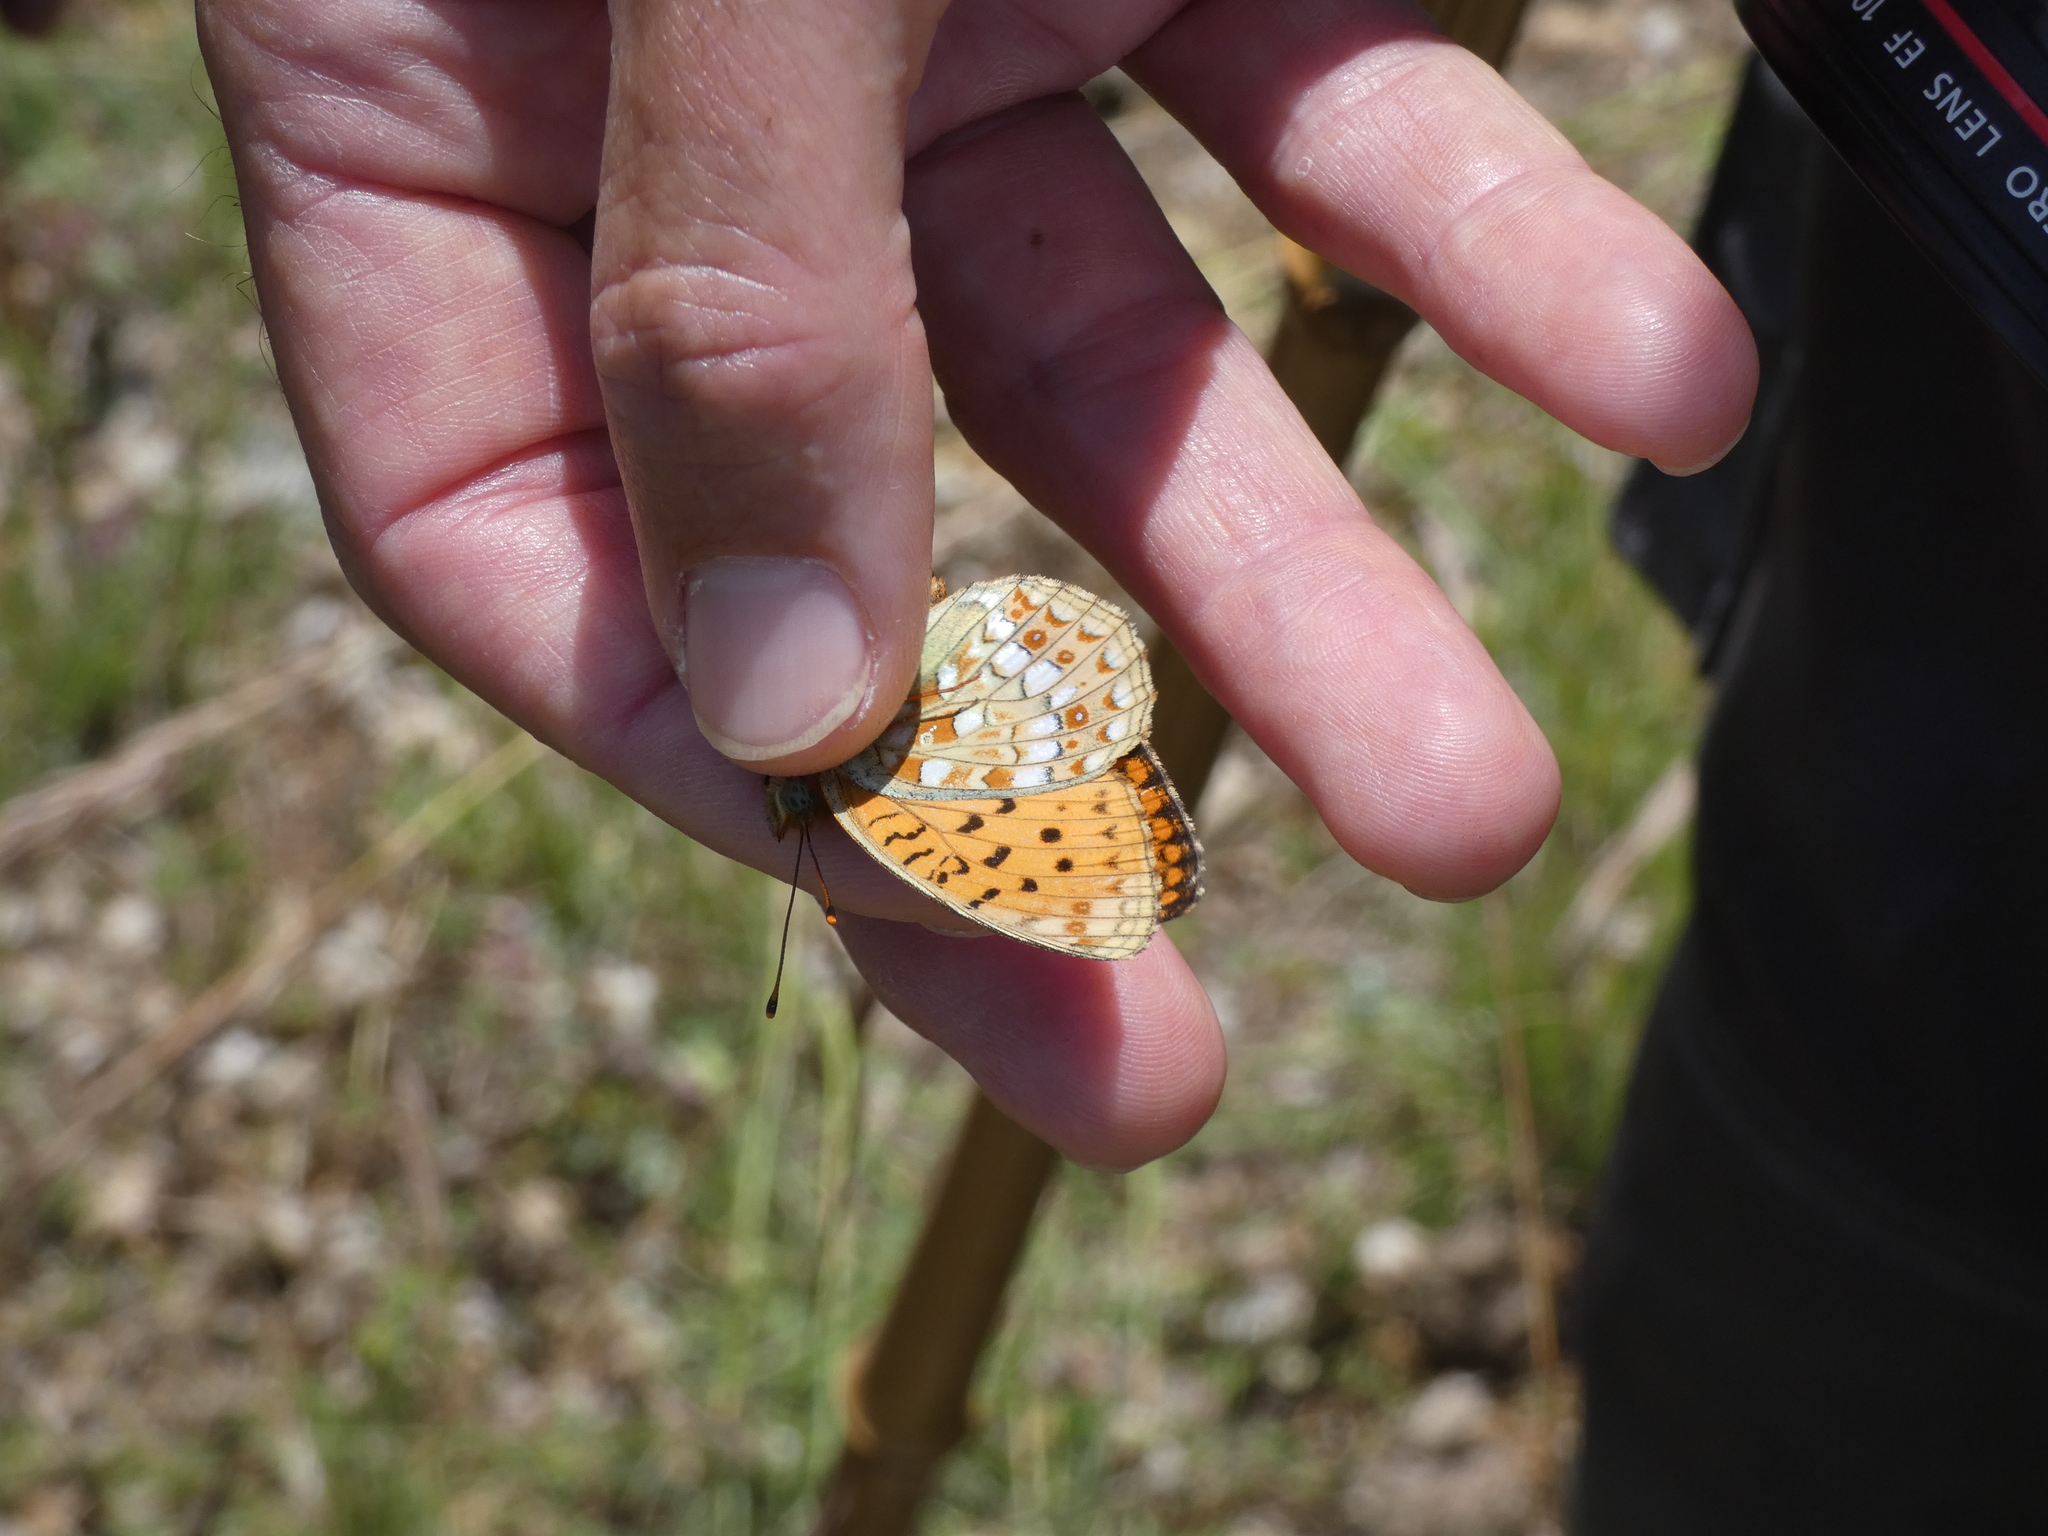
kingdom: Animalia
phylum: Arthropoda
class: Insecta
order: Lepidoptera
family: Nymphalidae
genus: Fabriciana
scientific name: Fabriciana niobe
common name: Niobe fritillary
